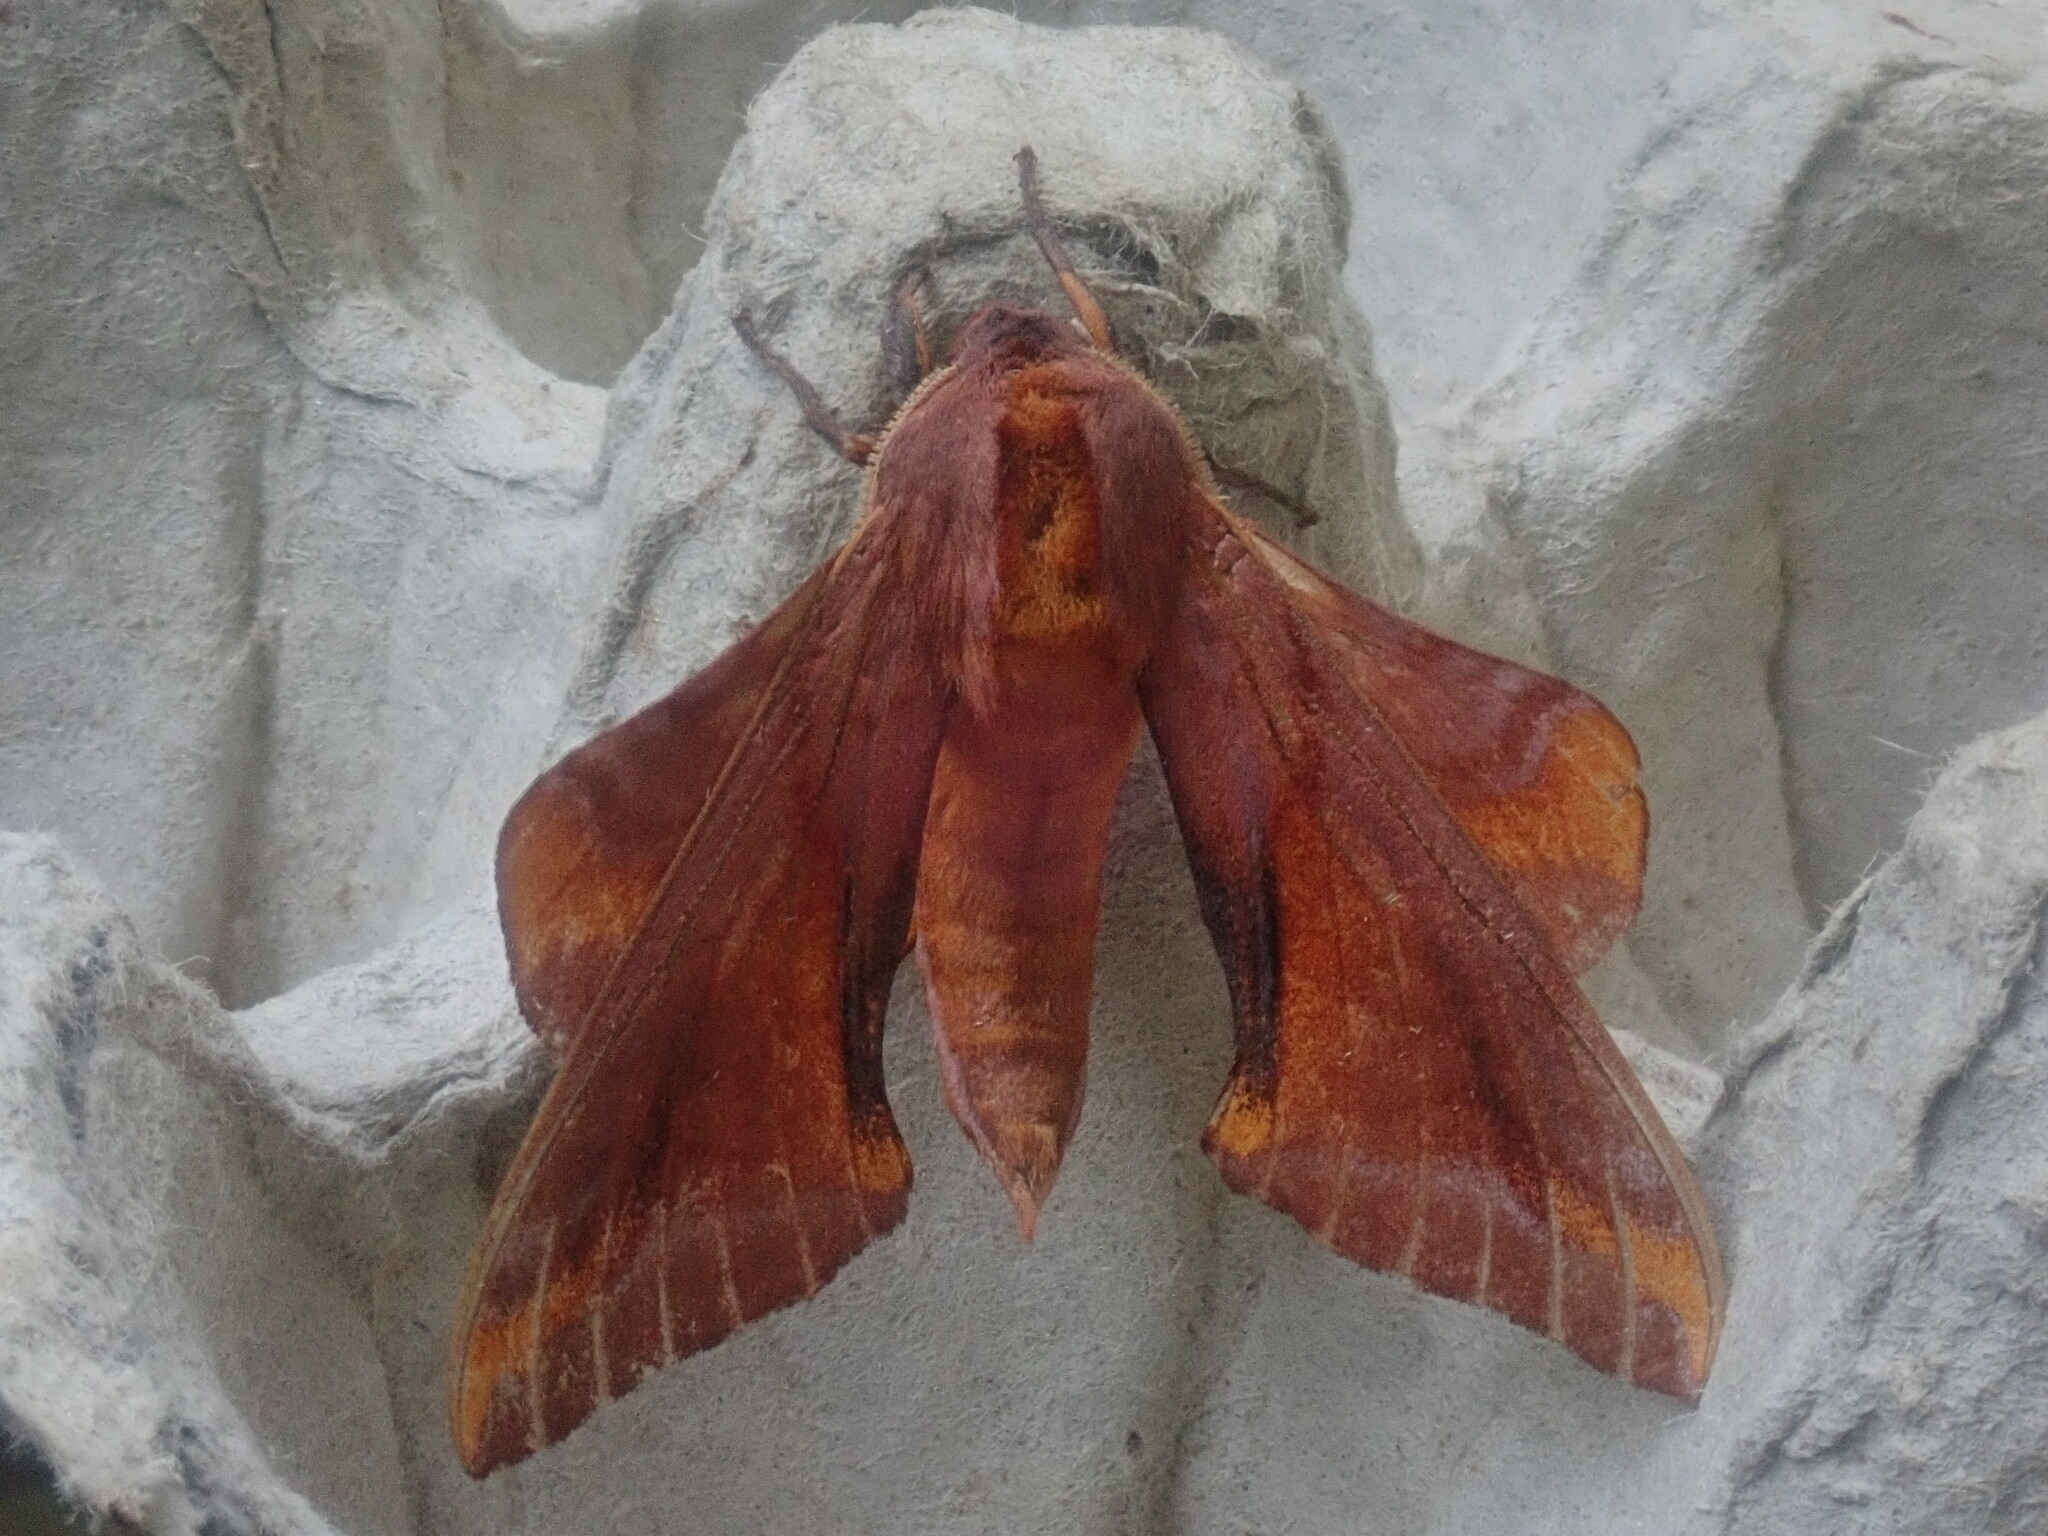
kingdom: Animalia
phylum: Arthropoda
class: Insecta
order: Lepidoptera
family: Sphingidae
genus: Paonias
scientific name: Paonias astylus
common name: Huckleberry sphinx
